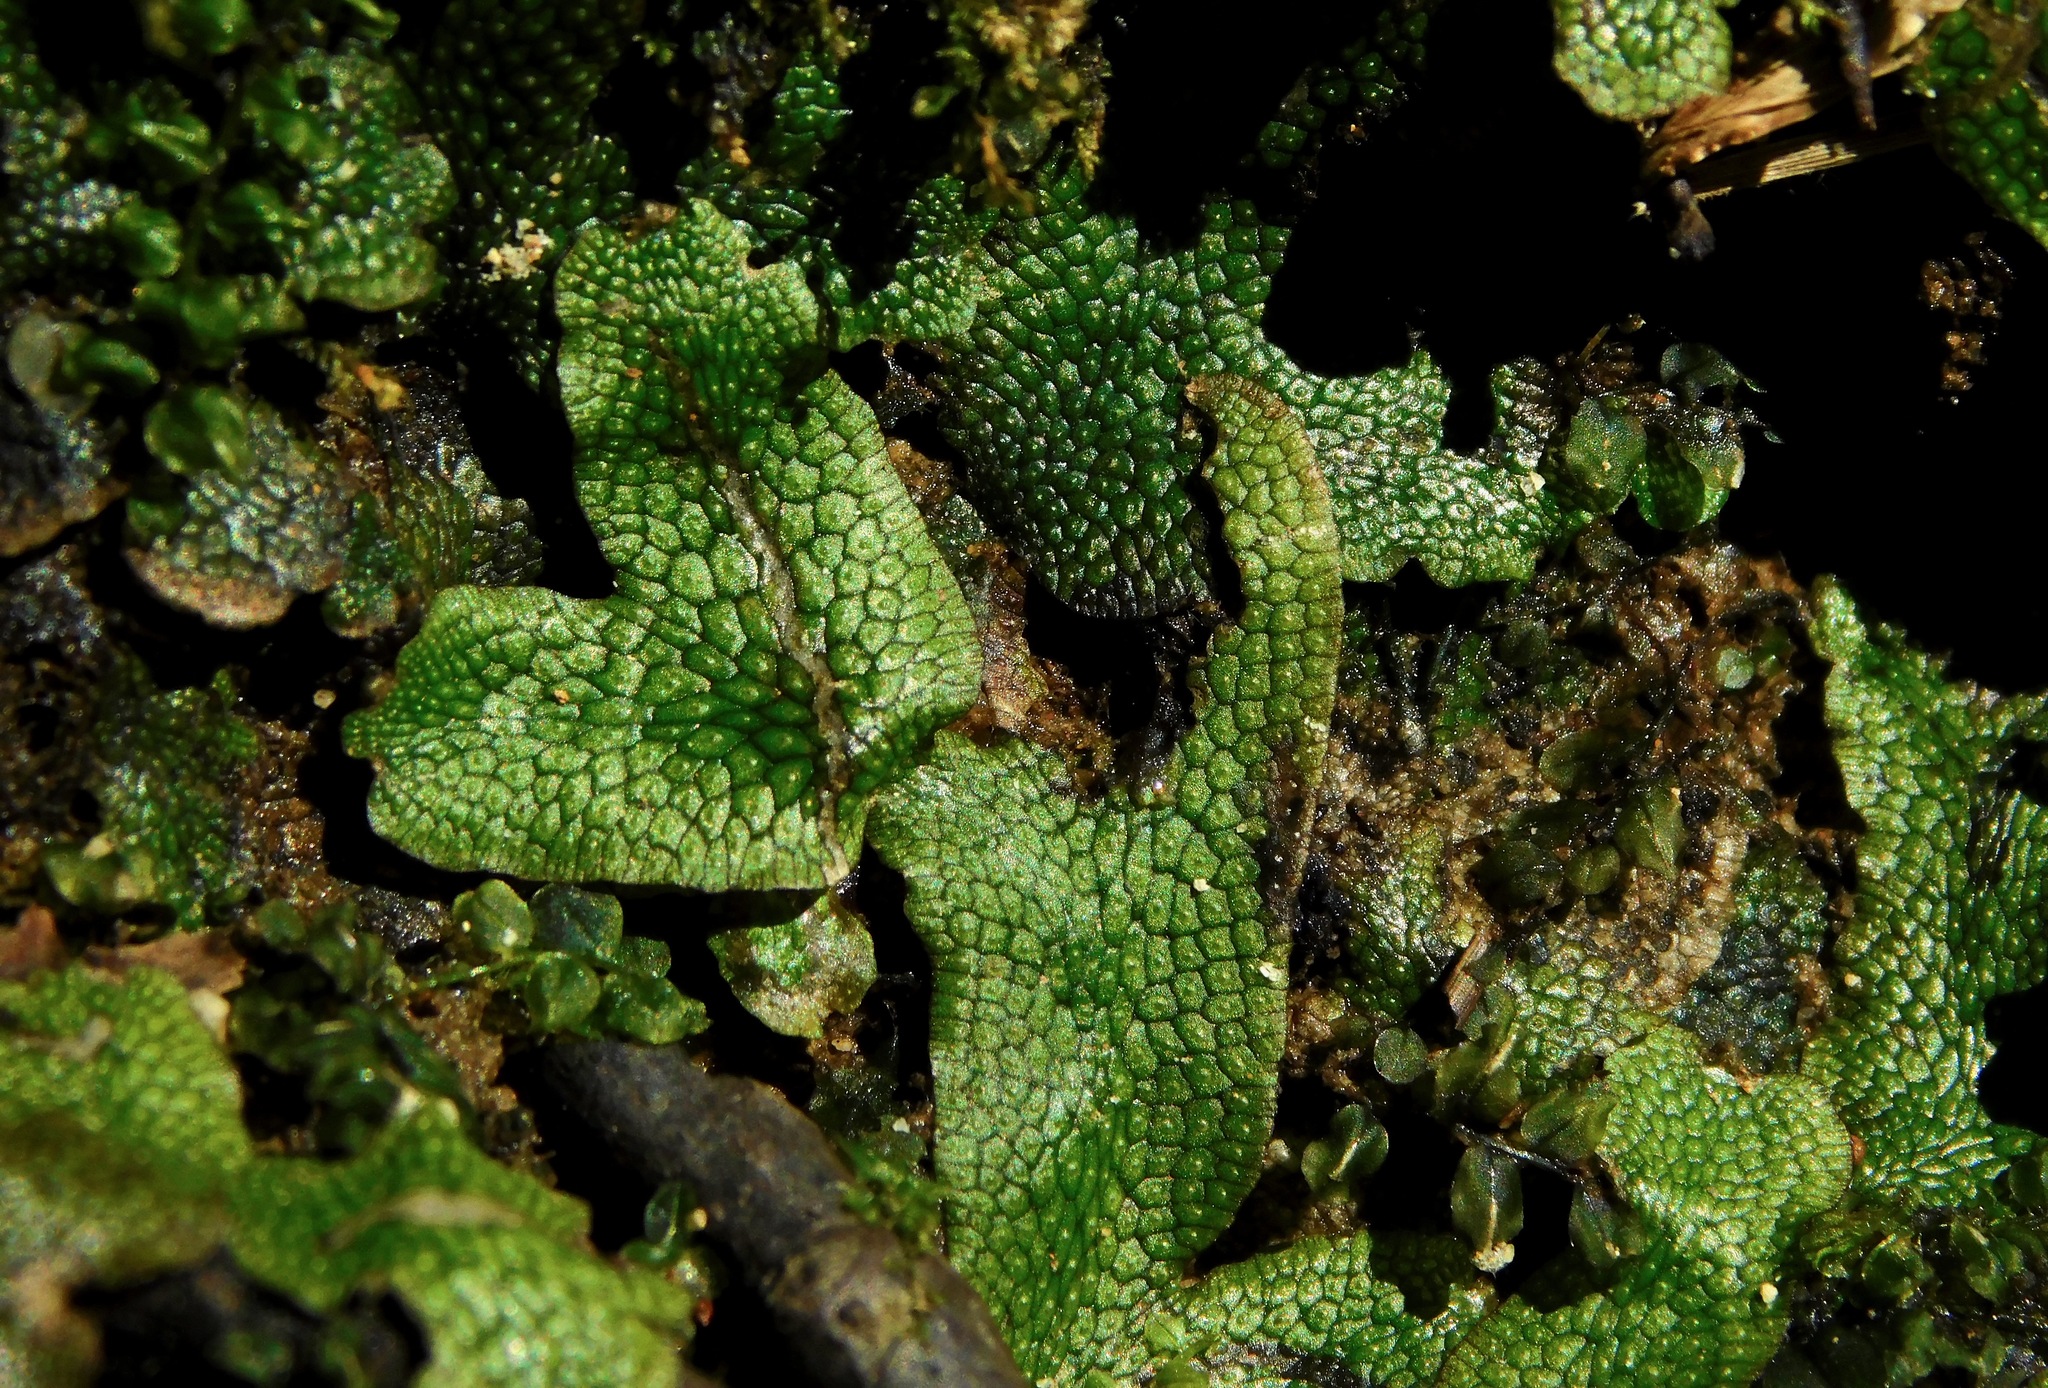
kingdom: Plantae
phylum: Marchantiophyta
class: Marchantiopsida
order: Marchantiales
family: Conocephalaceae
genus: Conocephalum
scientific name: Conocephalum salebrosum
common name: Cat-tongue liverwort
